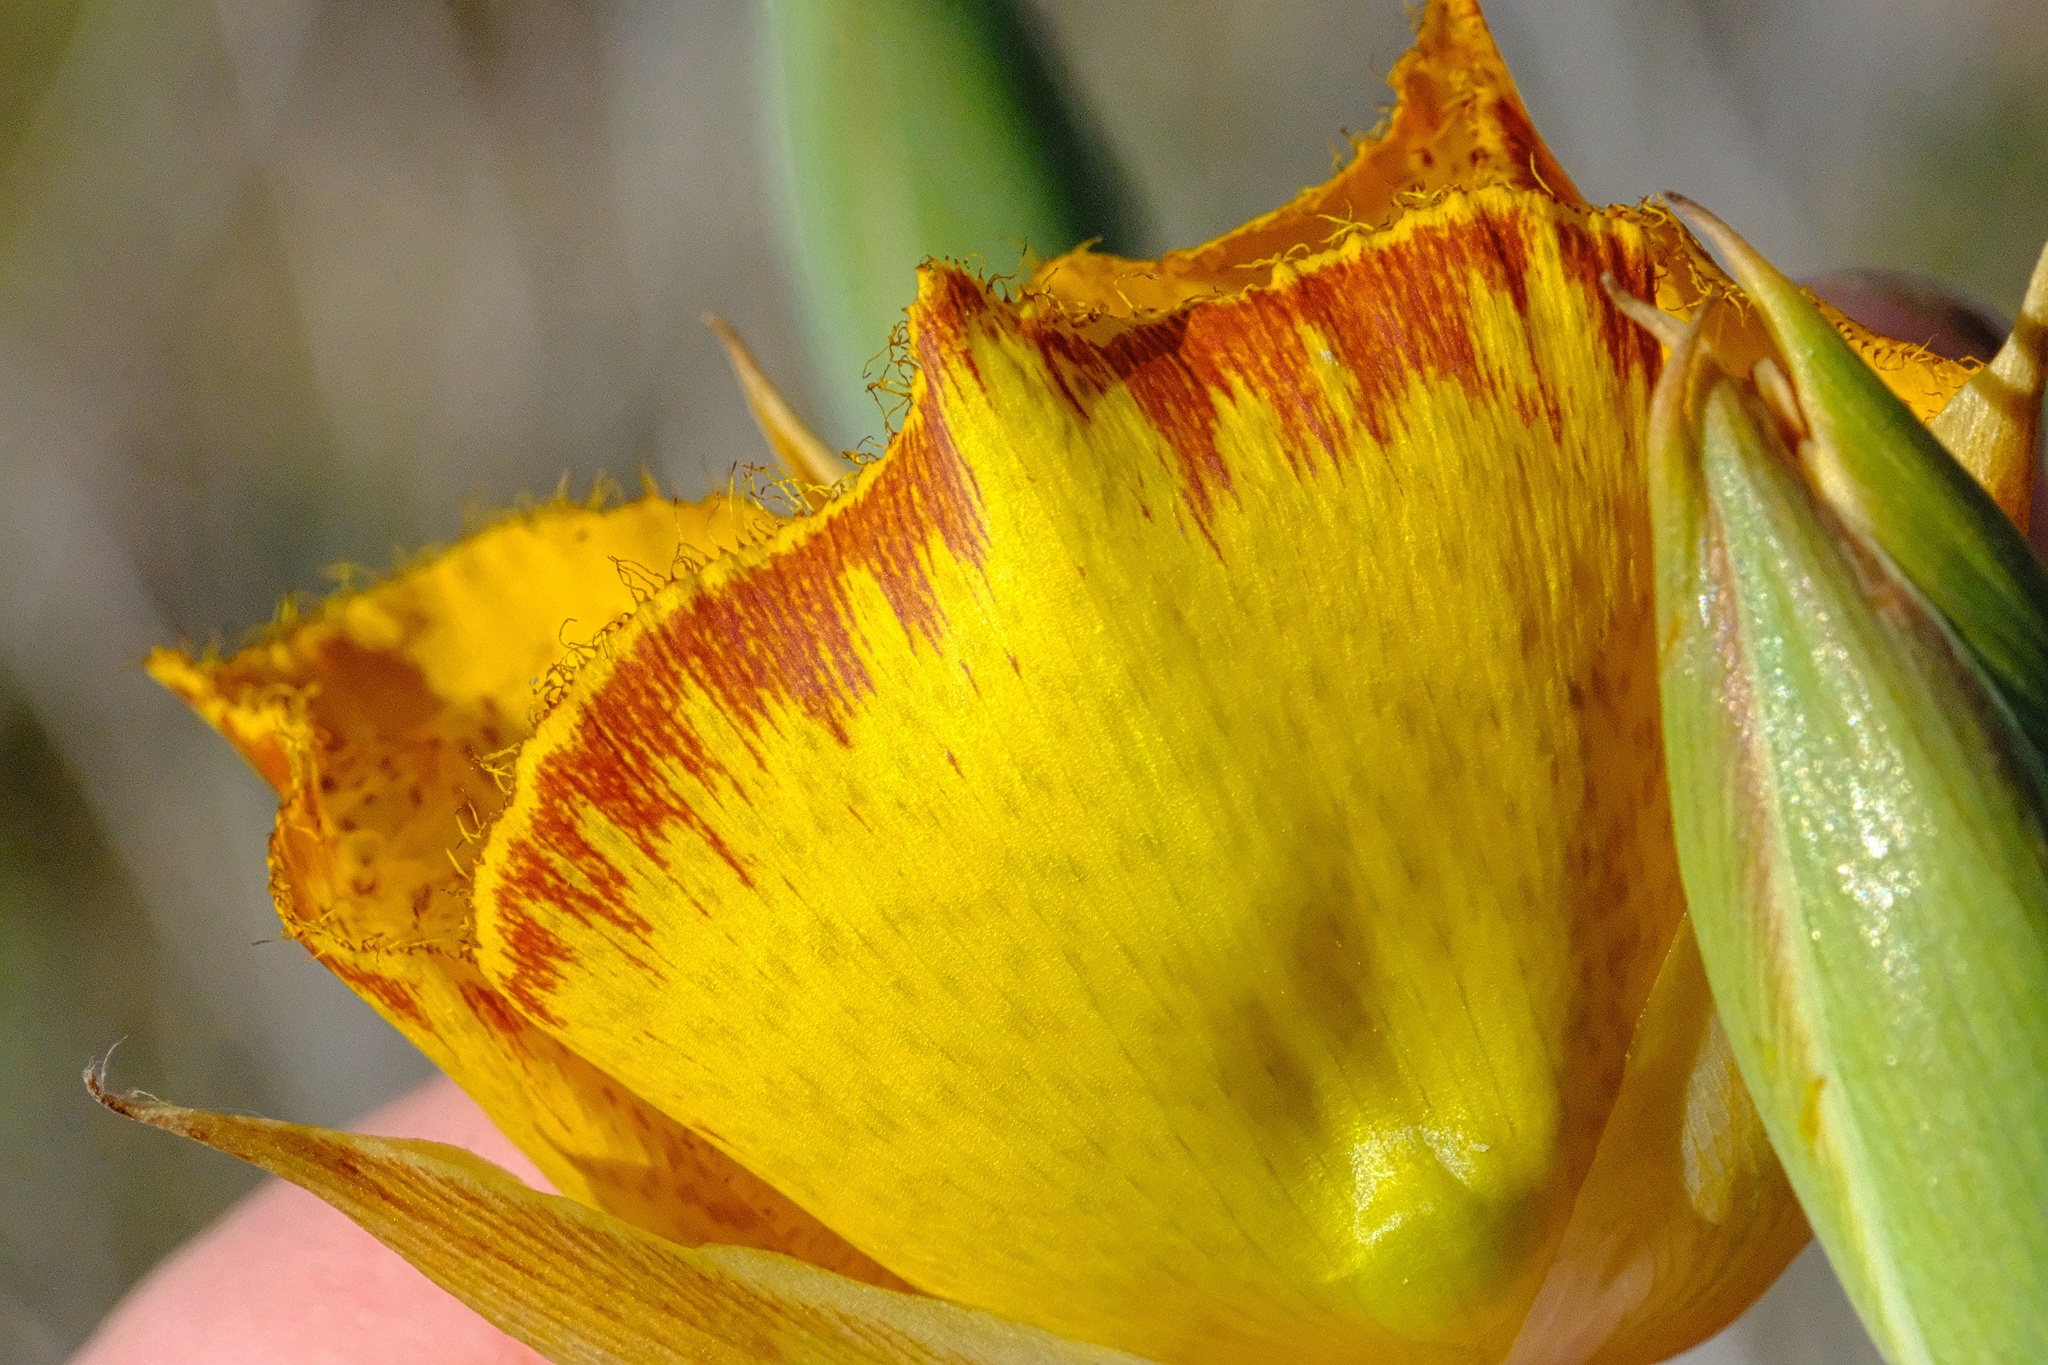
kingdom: Plantae
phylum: Tracheophyta
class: Liliopsida
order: Liliales
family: Liliaceae
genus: Calochortus
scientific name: Calochortus weedii
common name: Weed's mariposa-lily
